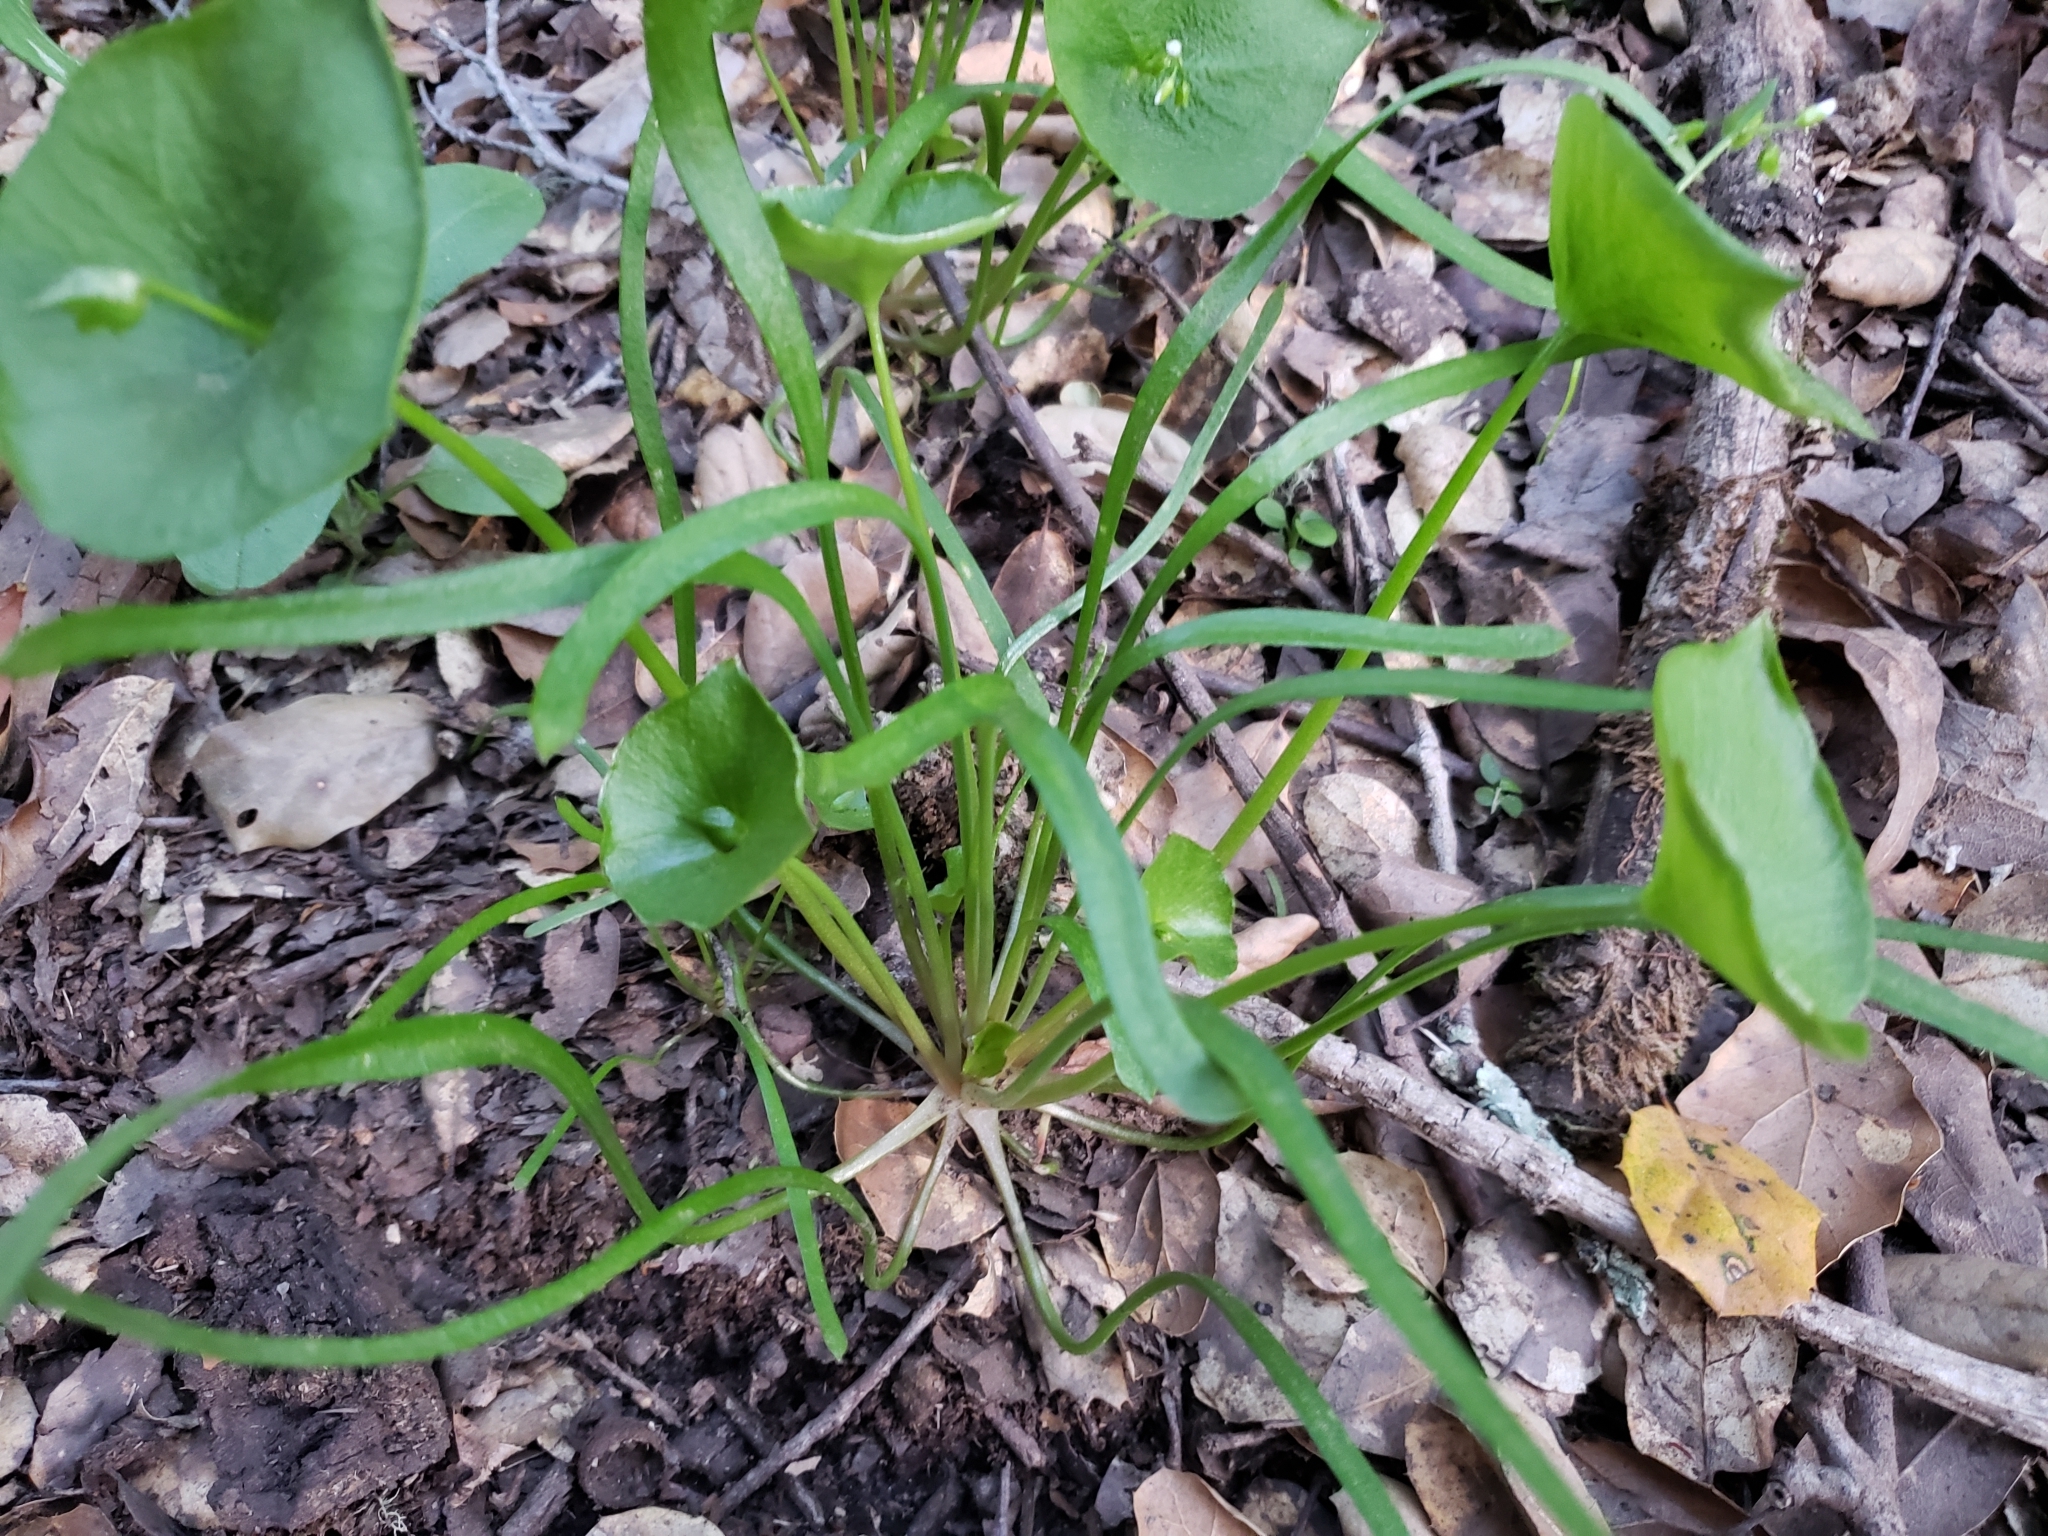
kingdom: Plantae
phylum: Tracheophyta
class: Magnoliopsida
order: Caryophyllales
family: Montiaceae
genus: Claytonia
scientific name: Claytonia parviflora
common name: Indian-lettuce
